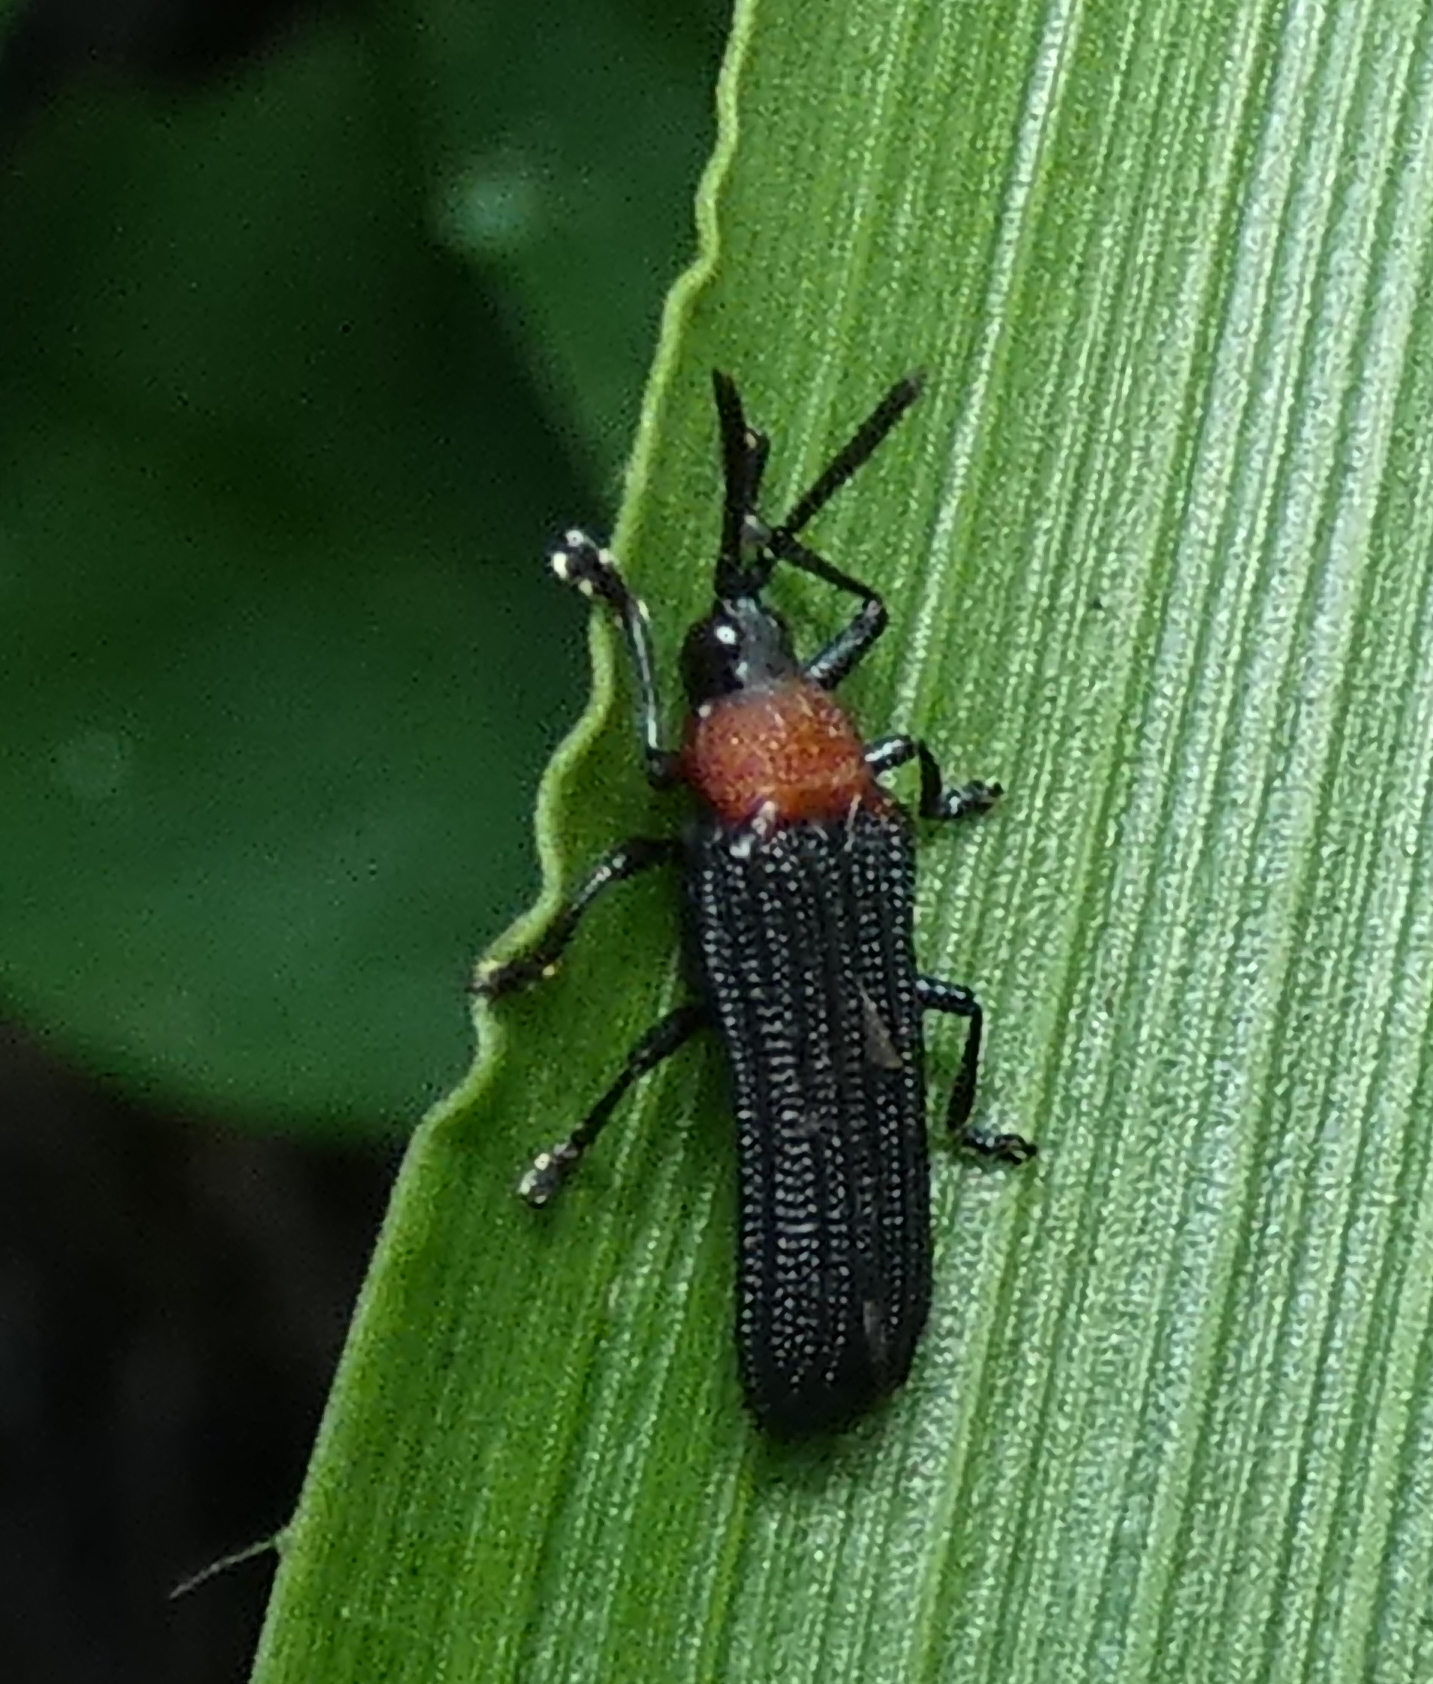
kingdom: Animalia
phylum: Arthropoda
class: Insecta
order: Coleoptera
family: Chrysomelidae
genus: Chalepus
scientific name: Chalepus notula
